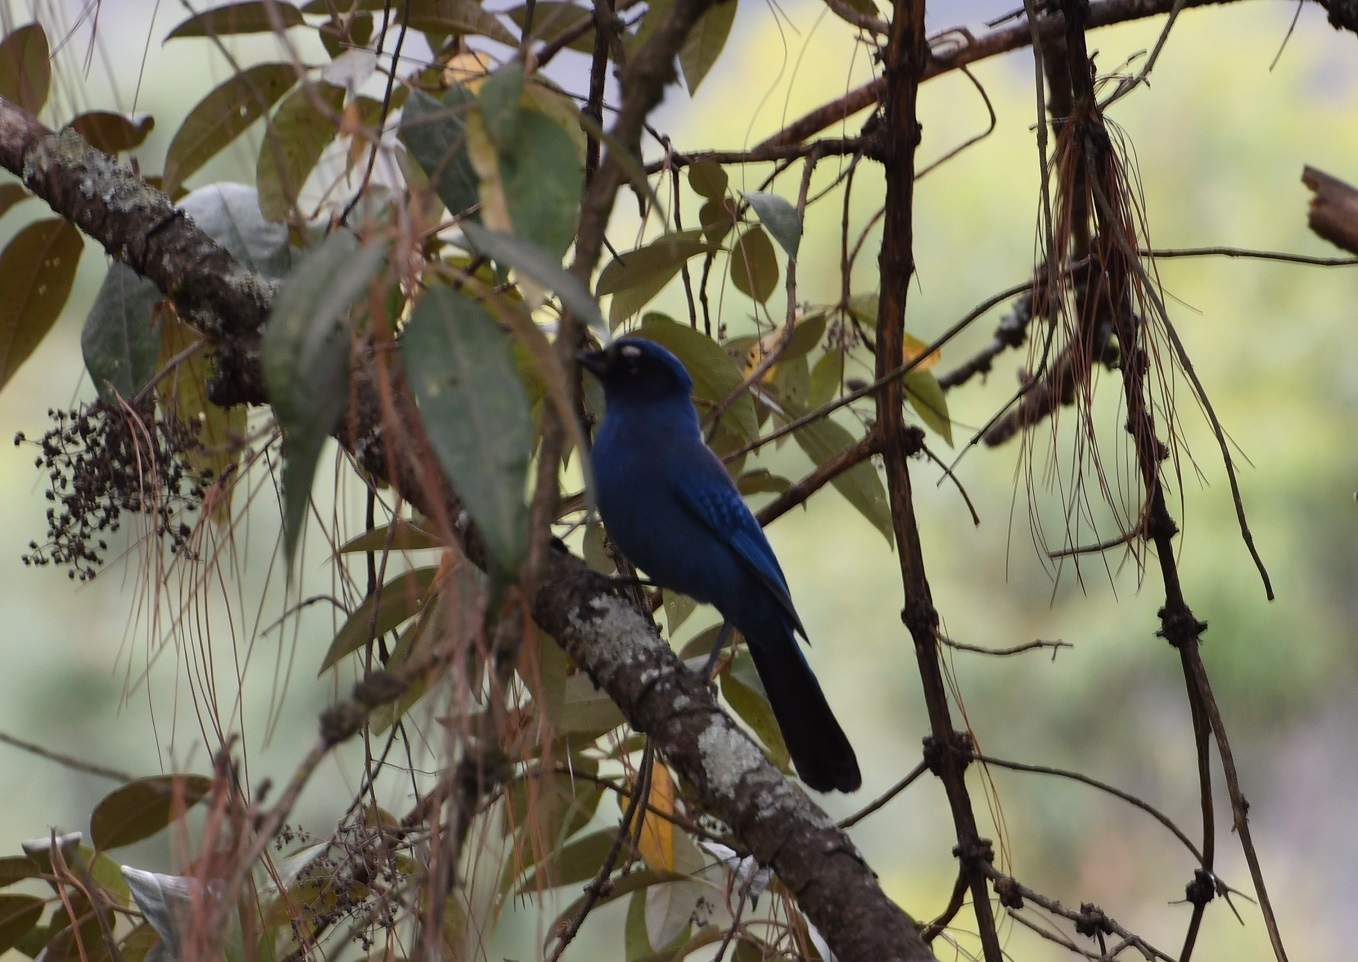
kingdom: Animalia
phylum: Chordata
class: Aves
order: Passeriformes
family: Corvidae
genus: Cyanocitta
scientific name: Cyanocitta stelleri
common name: Steller's jay
